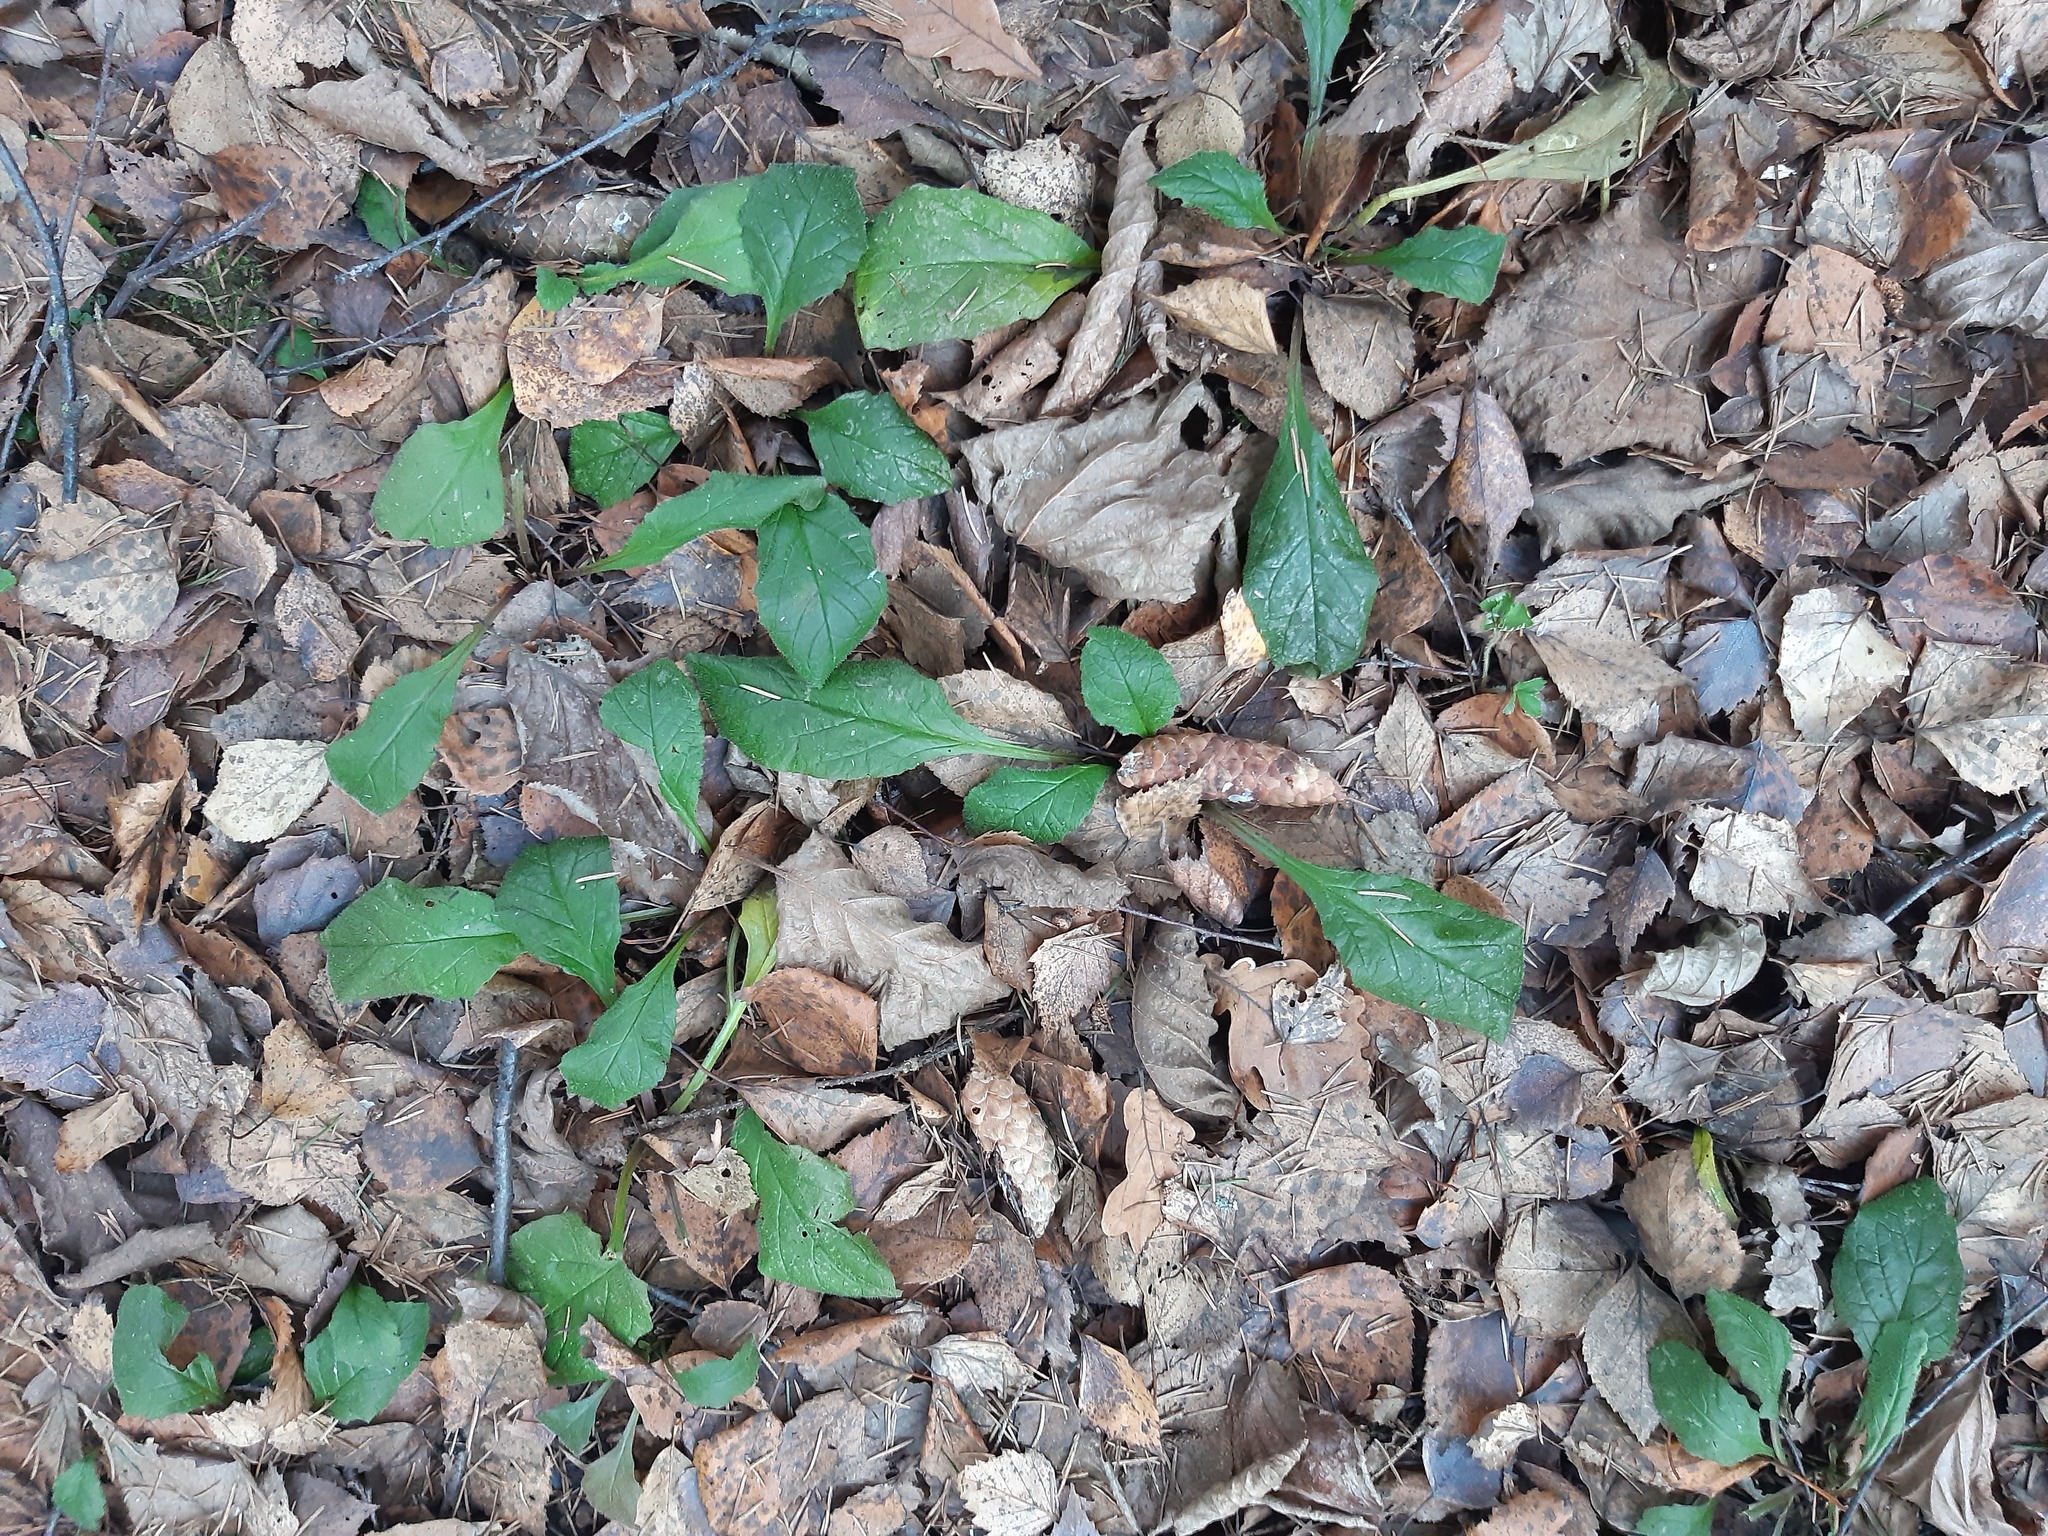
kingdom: Plantae
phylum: Tracheophyta
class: Magnoliopsida
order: Lamiales
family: Lamiaceae
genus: Ajuga
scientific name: Ajuga reptans
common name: Bugle
